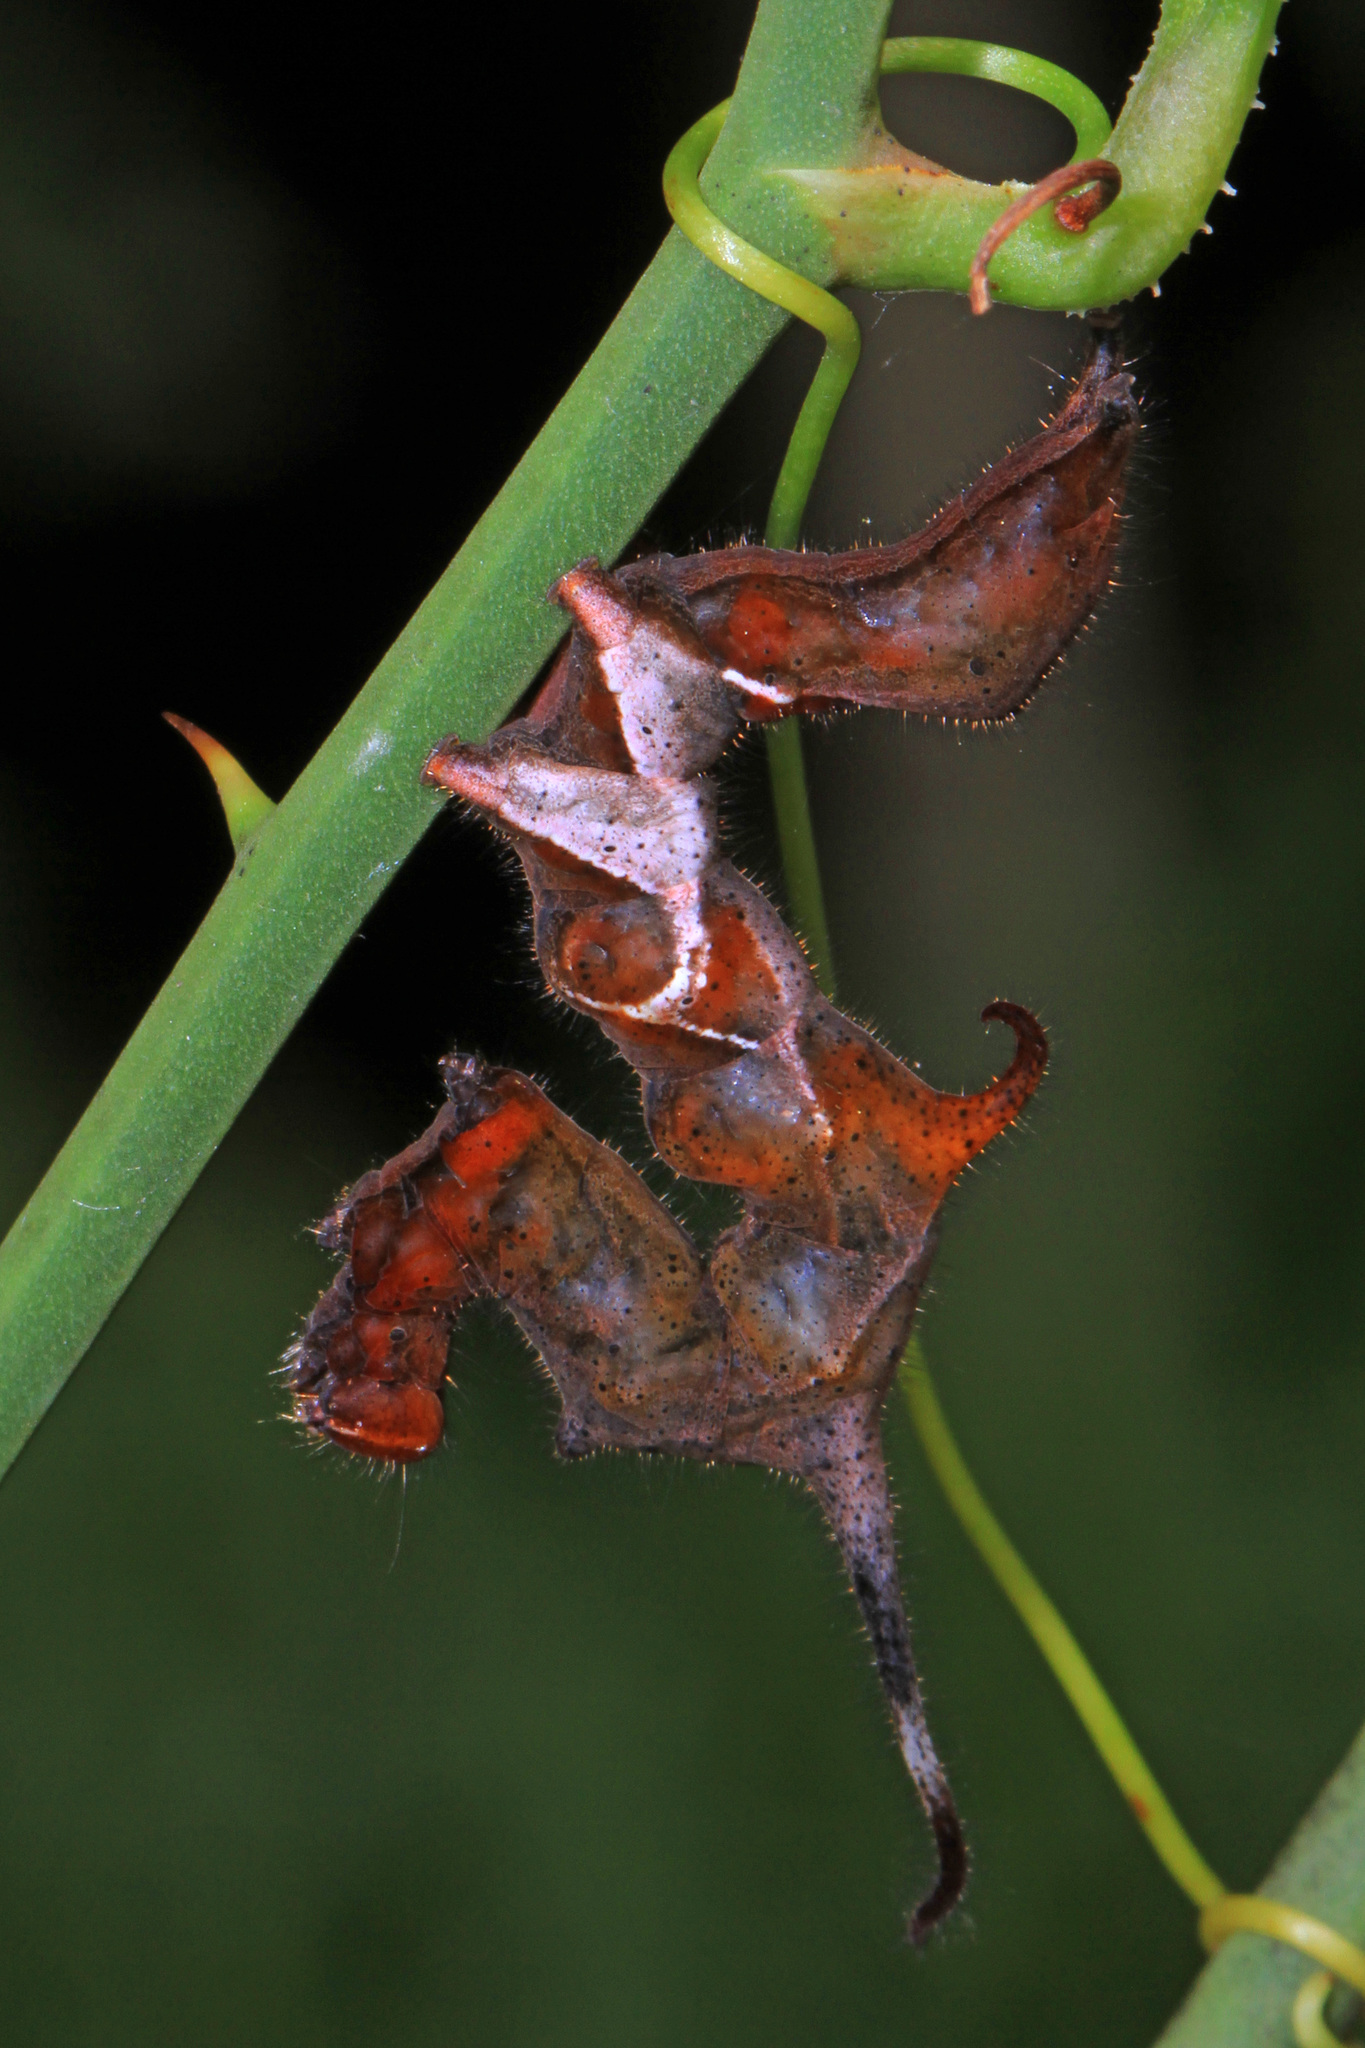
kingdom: Animalia
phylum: Arthropoda
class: Insecta
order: Lepidoptera
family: Erebidae
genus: Phyprosopus
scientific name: Phyprosopus callitrichoides
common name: Curved-lined owlet
